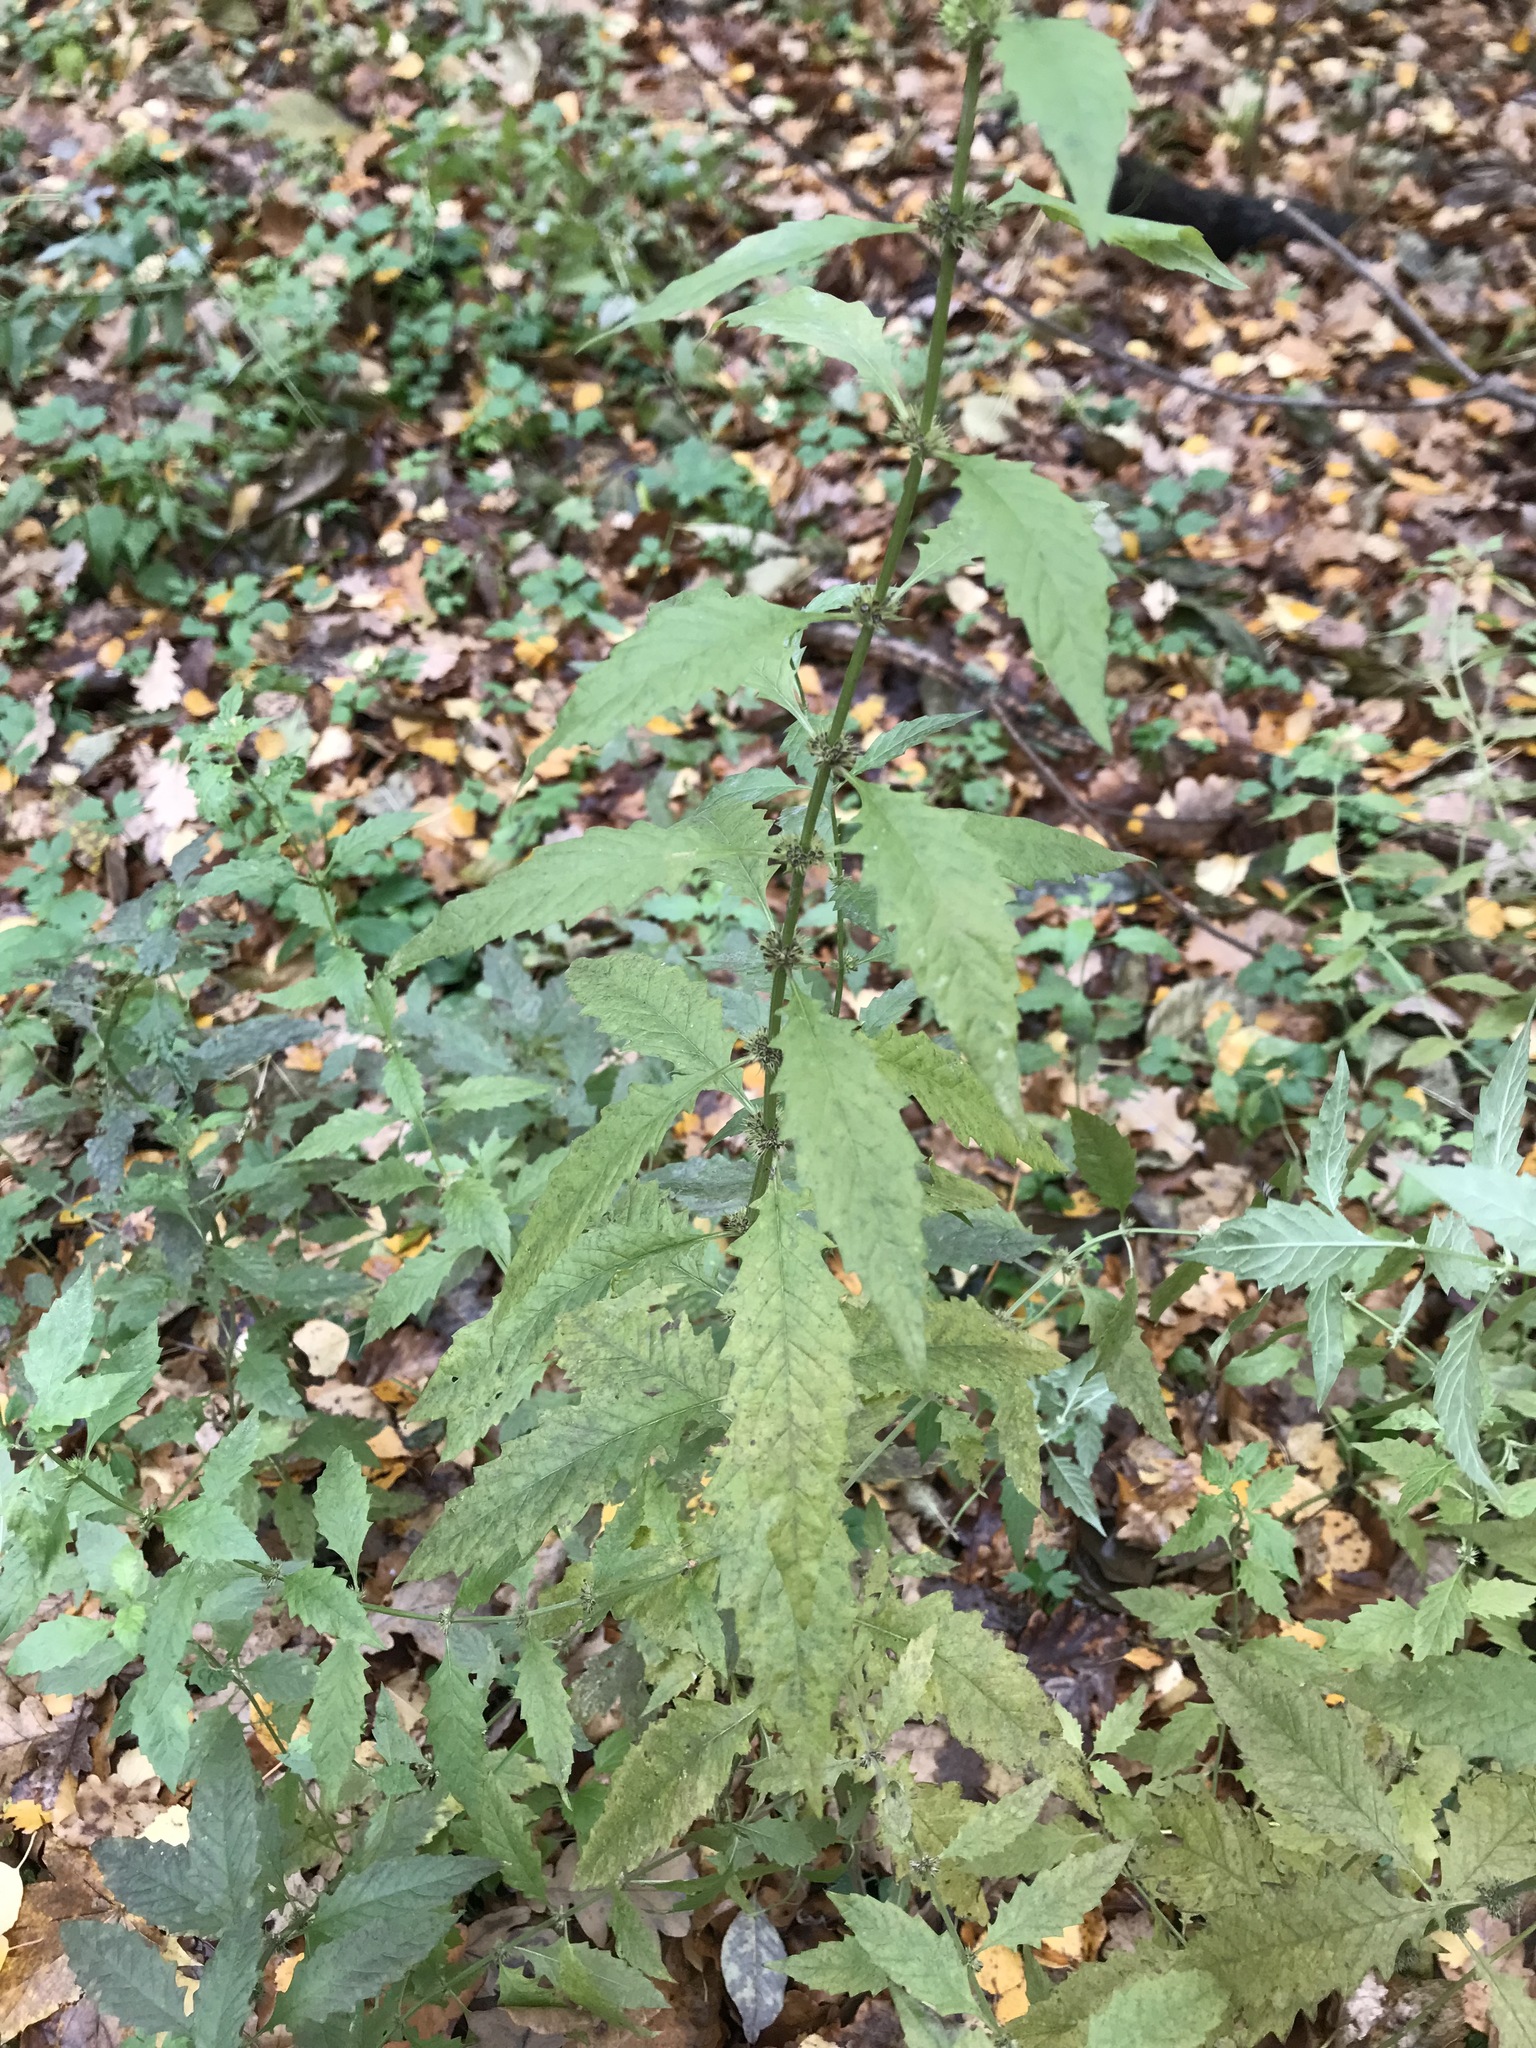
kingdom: Plantae
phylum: Tracheophyta
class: Magnoliopsida
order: Lamiales
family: Lamiaceae
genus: Lycopus
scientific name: Lycopus europaeus
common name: European bugleweed
